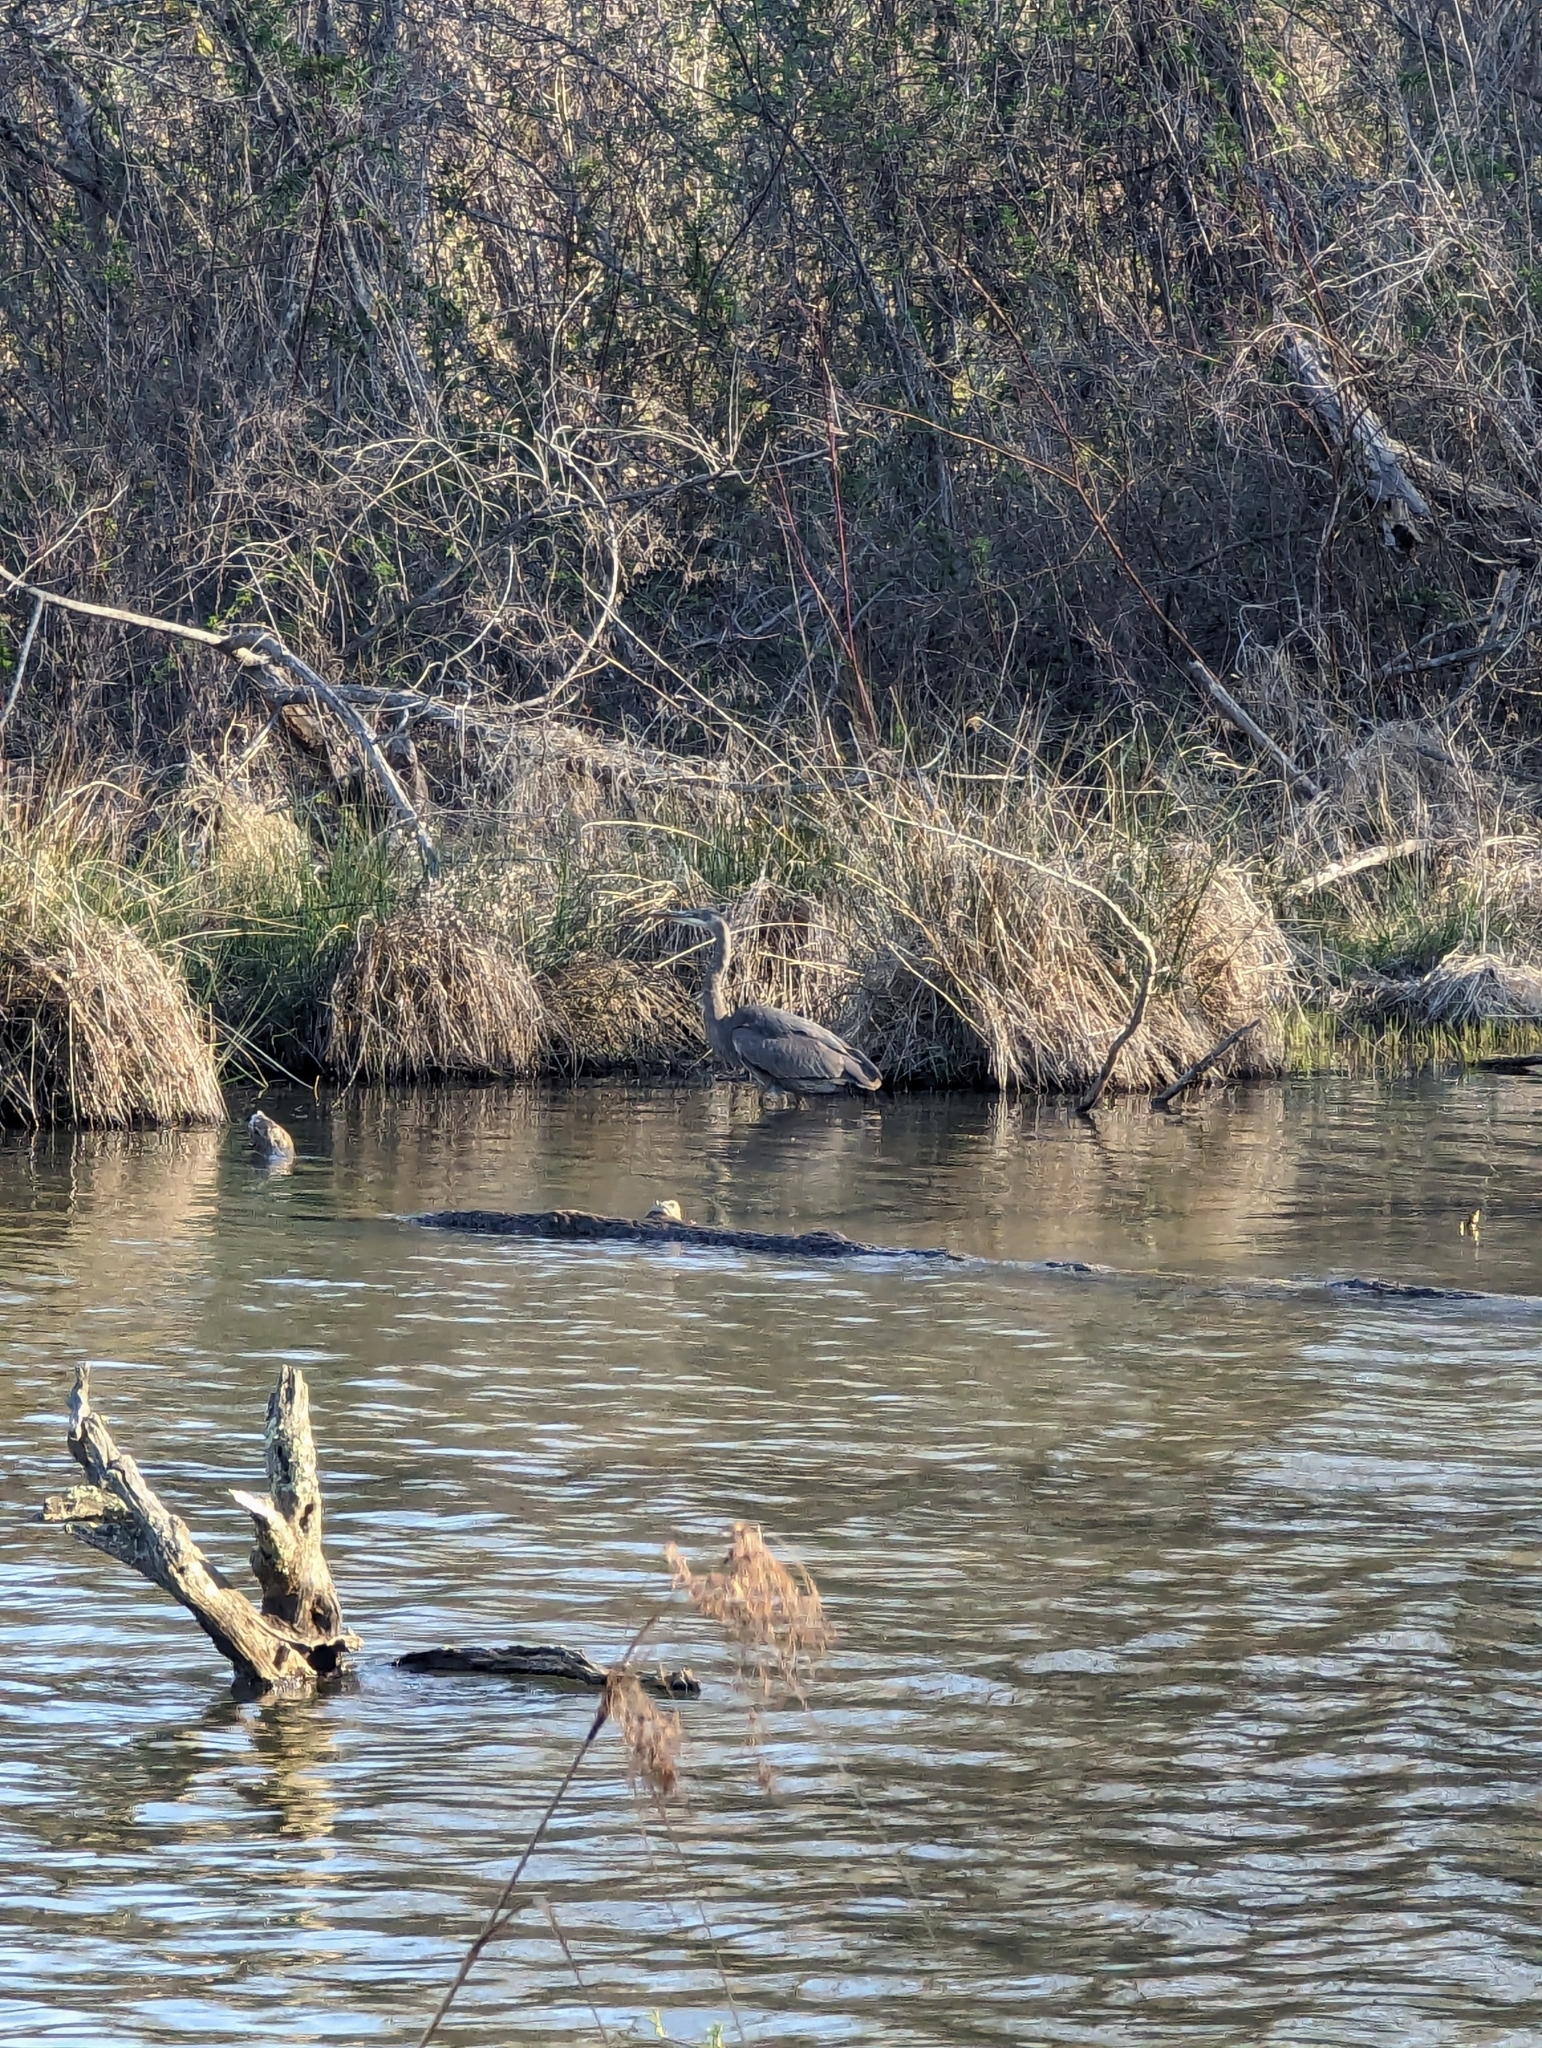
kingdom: Animalia
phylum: Chordata
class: Aves
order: Pelecaniformes
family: Ardeidae
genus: Ardea
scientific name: Ardea herodias
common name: Great blue heron
